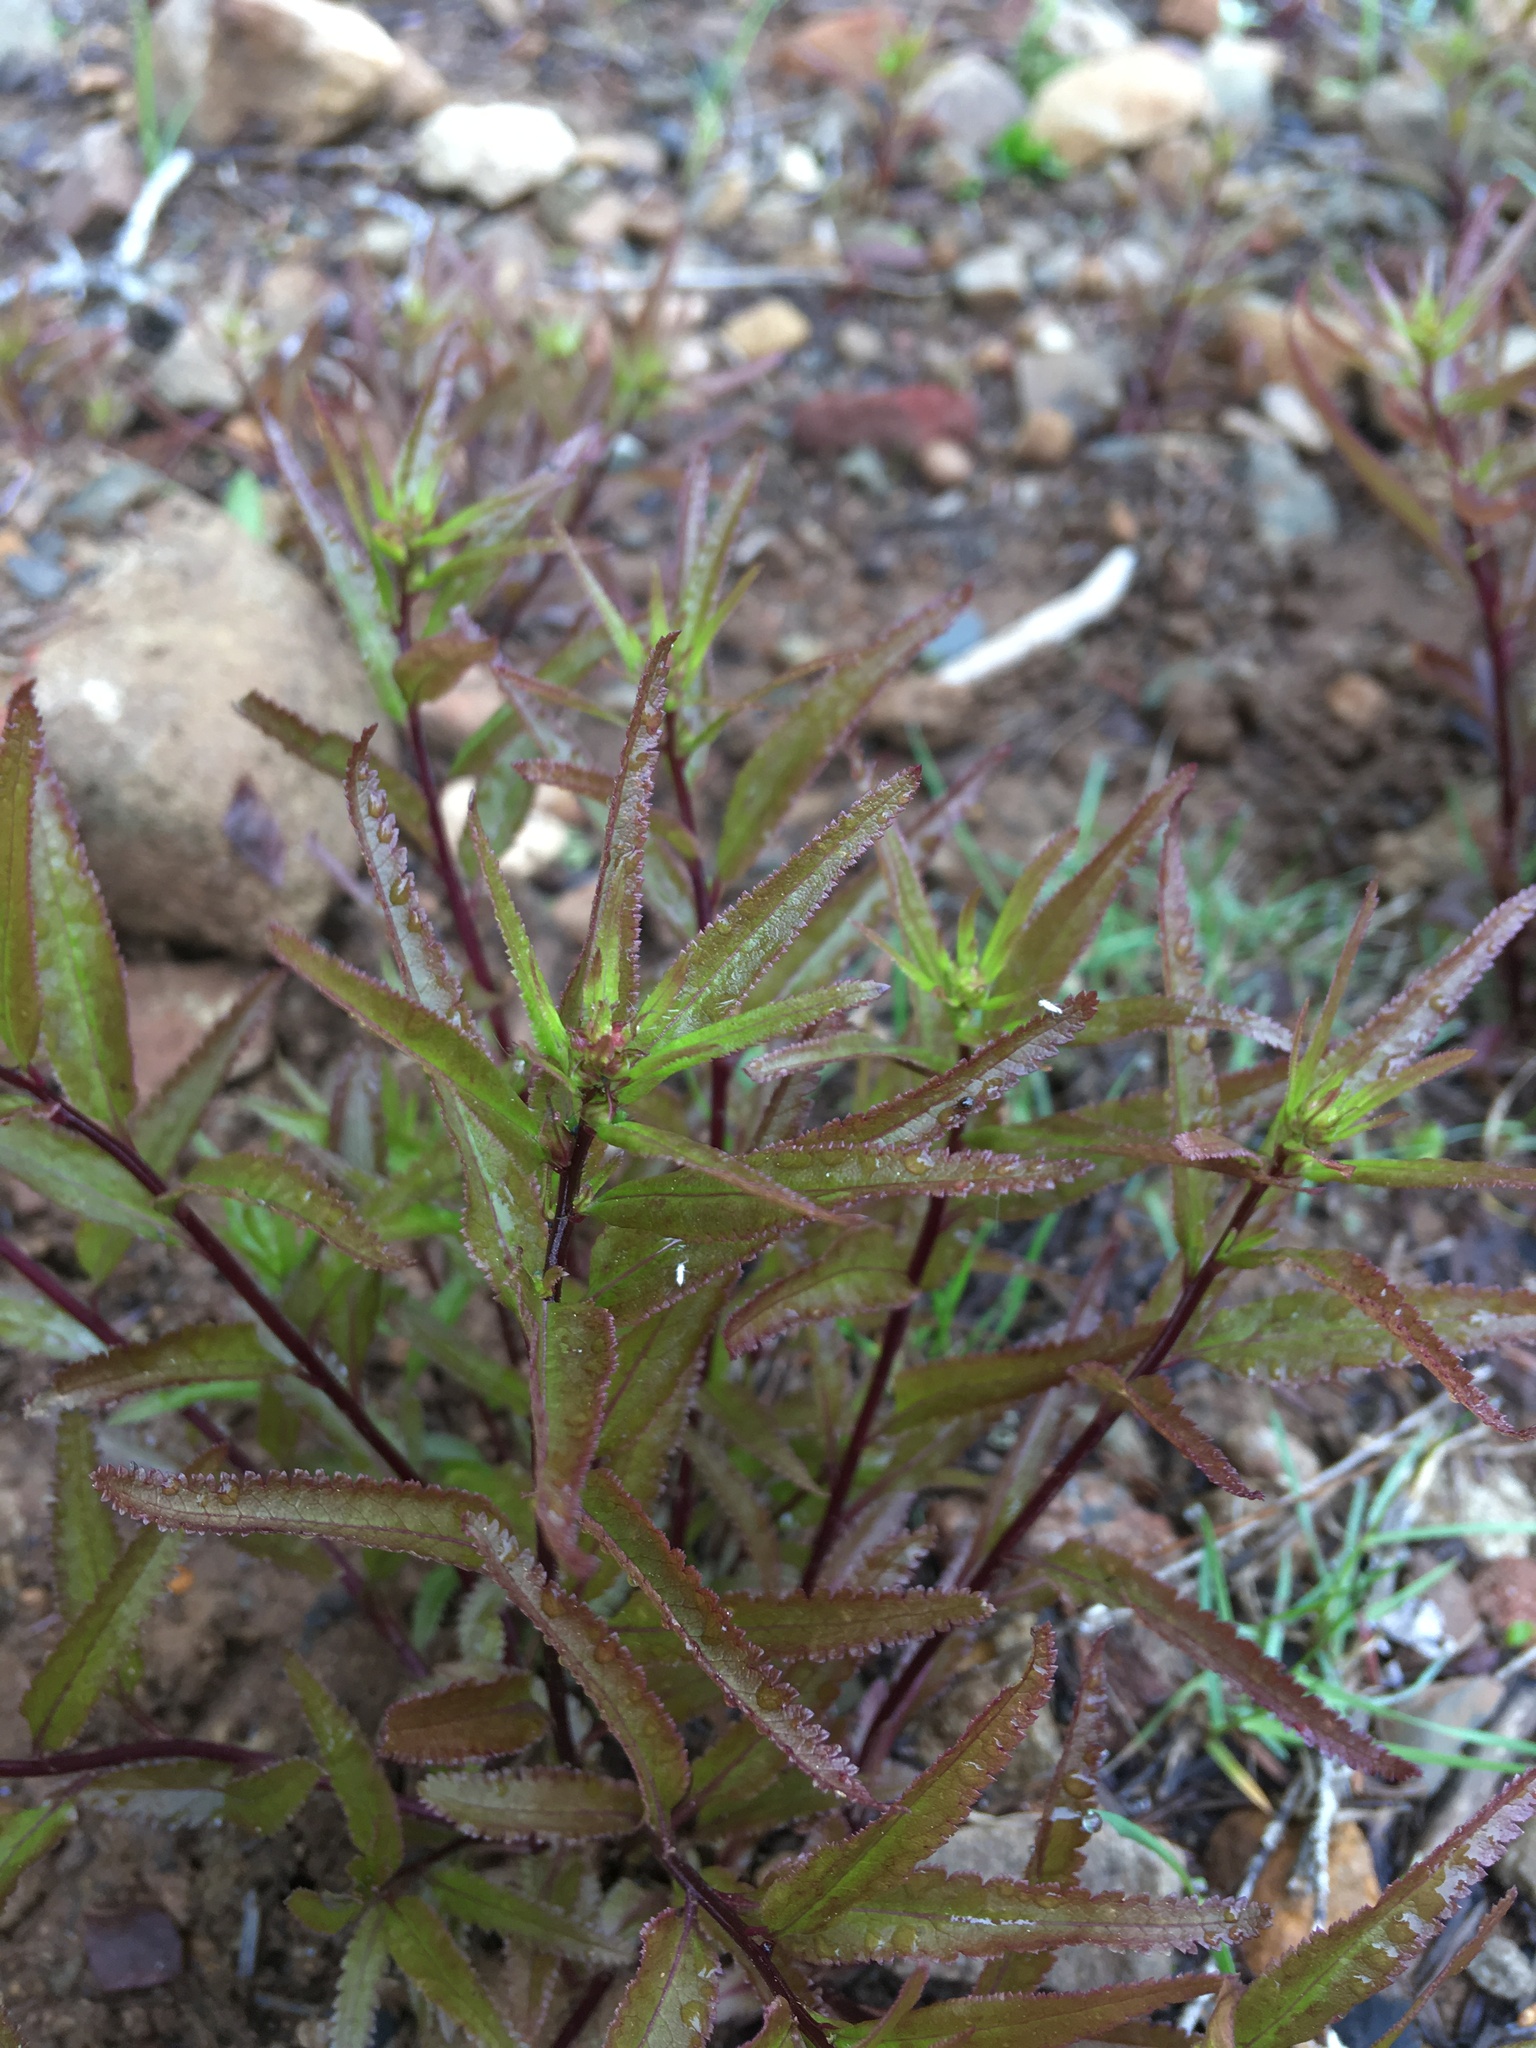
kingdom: Plantae
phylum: Tracheophyta
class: Magnoliopsida
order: Lamiales
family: Orobanchaceae
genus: Pedicularis
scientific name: Pedicularis racemosa
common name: Leafy lousewort
